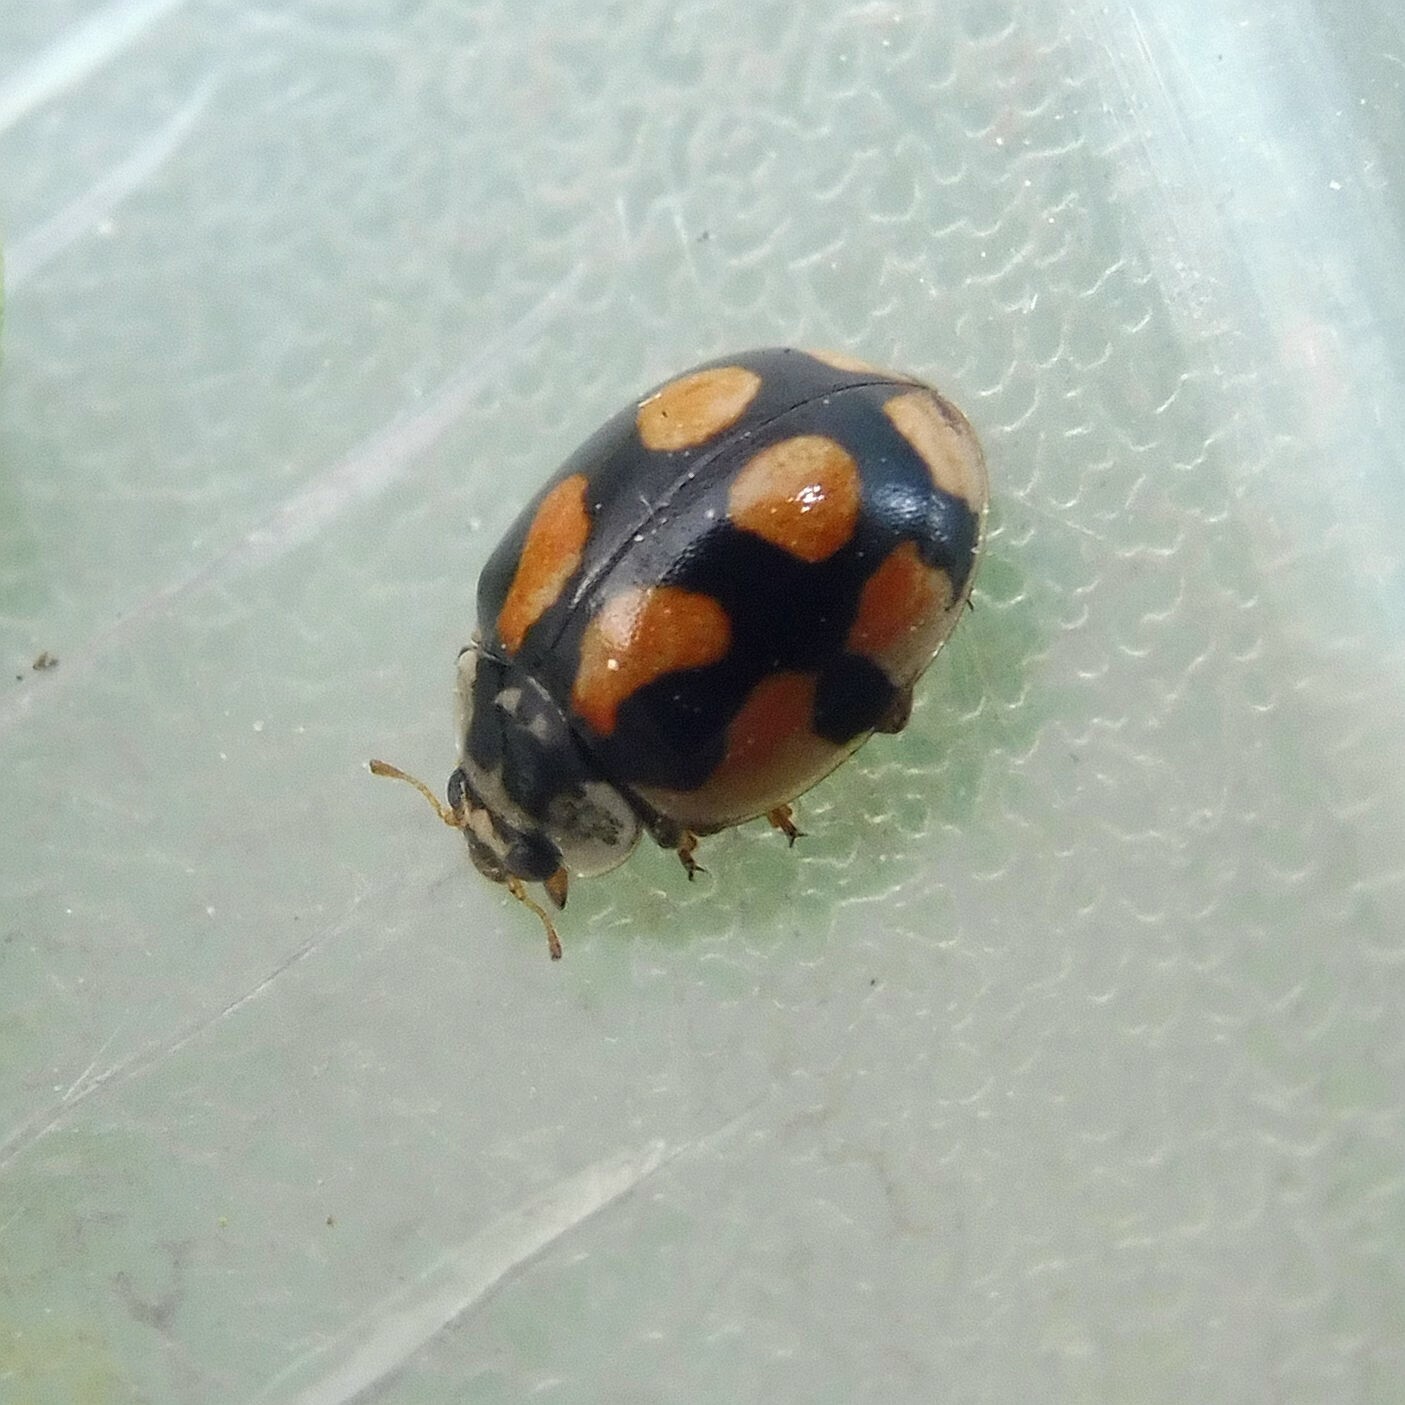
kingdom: Animalia
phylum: Arthropoda
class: Insecta
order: Coleoptera
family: Coccinellidae
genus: Adalia
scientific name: Adalia decempunctata
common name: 10-spot ladybird
